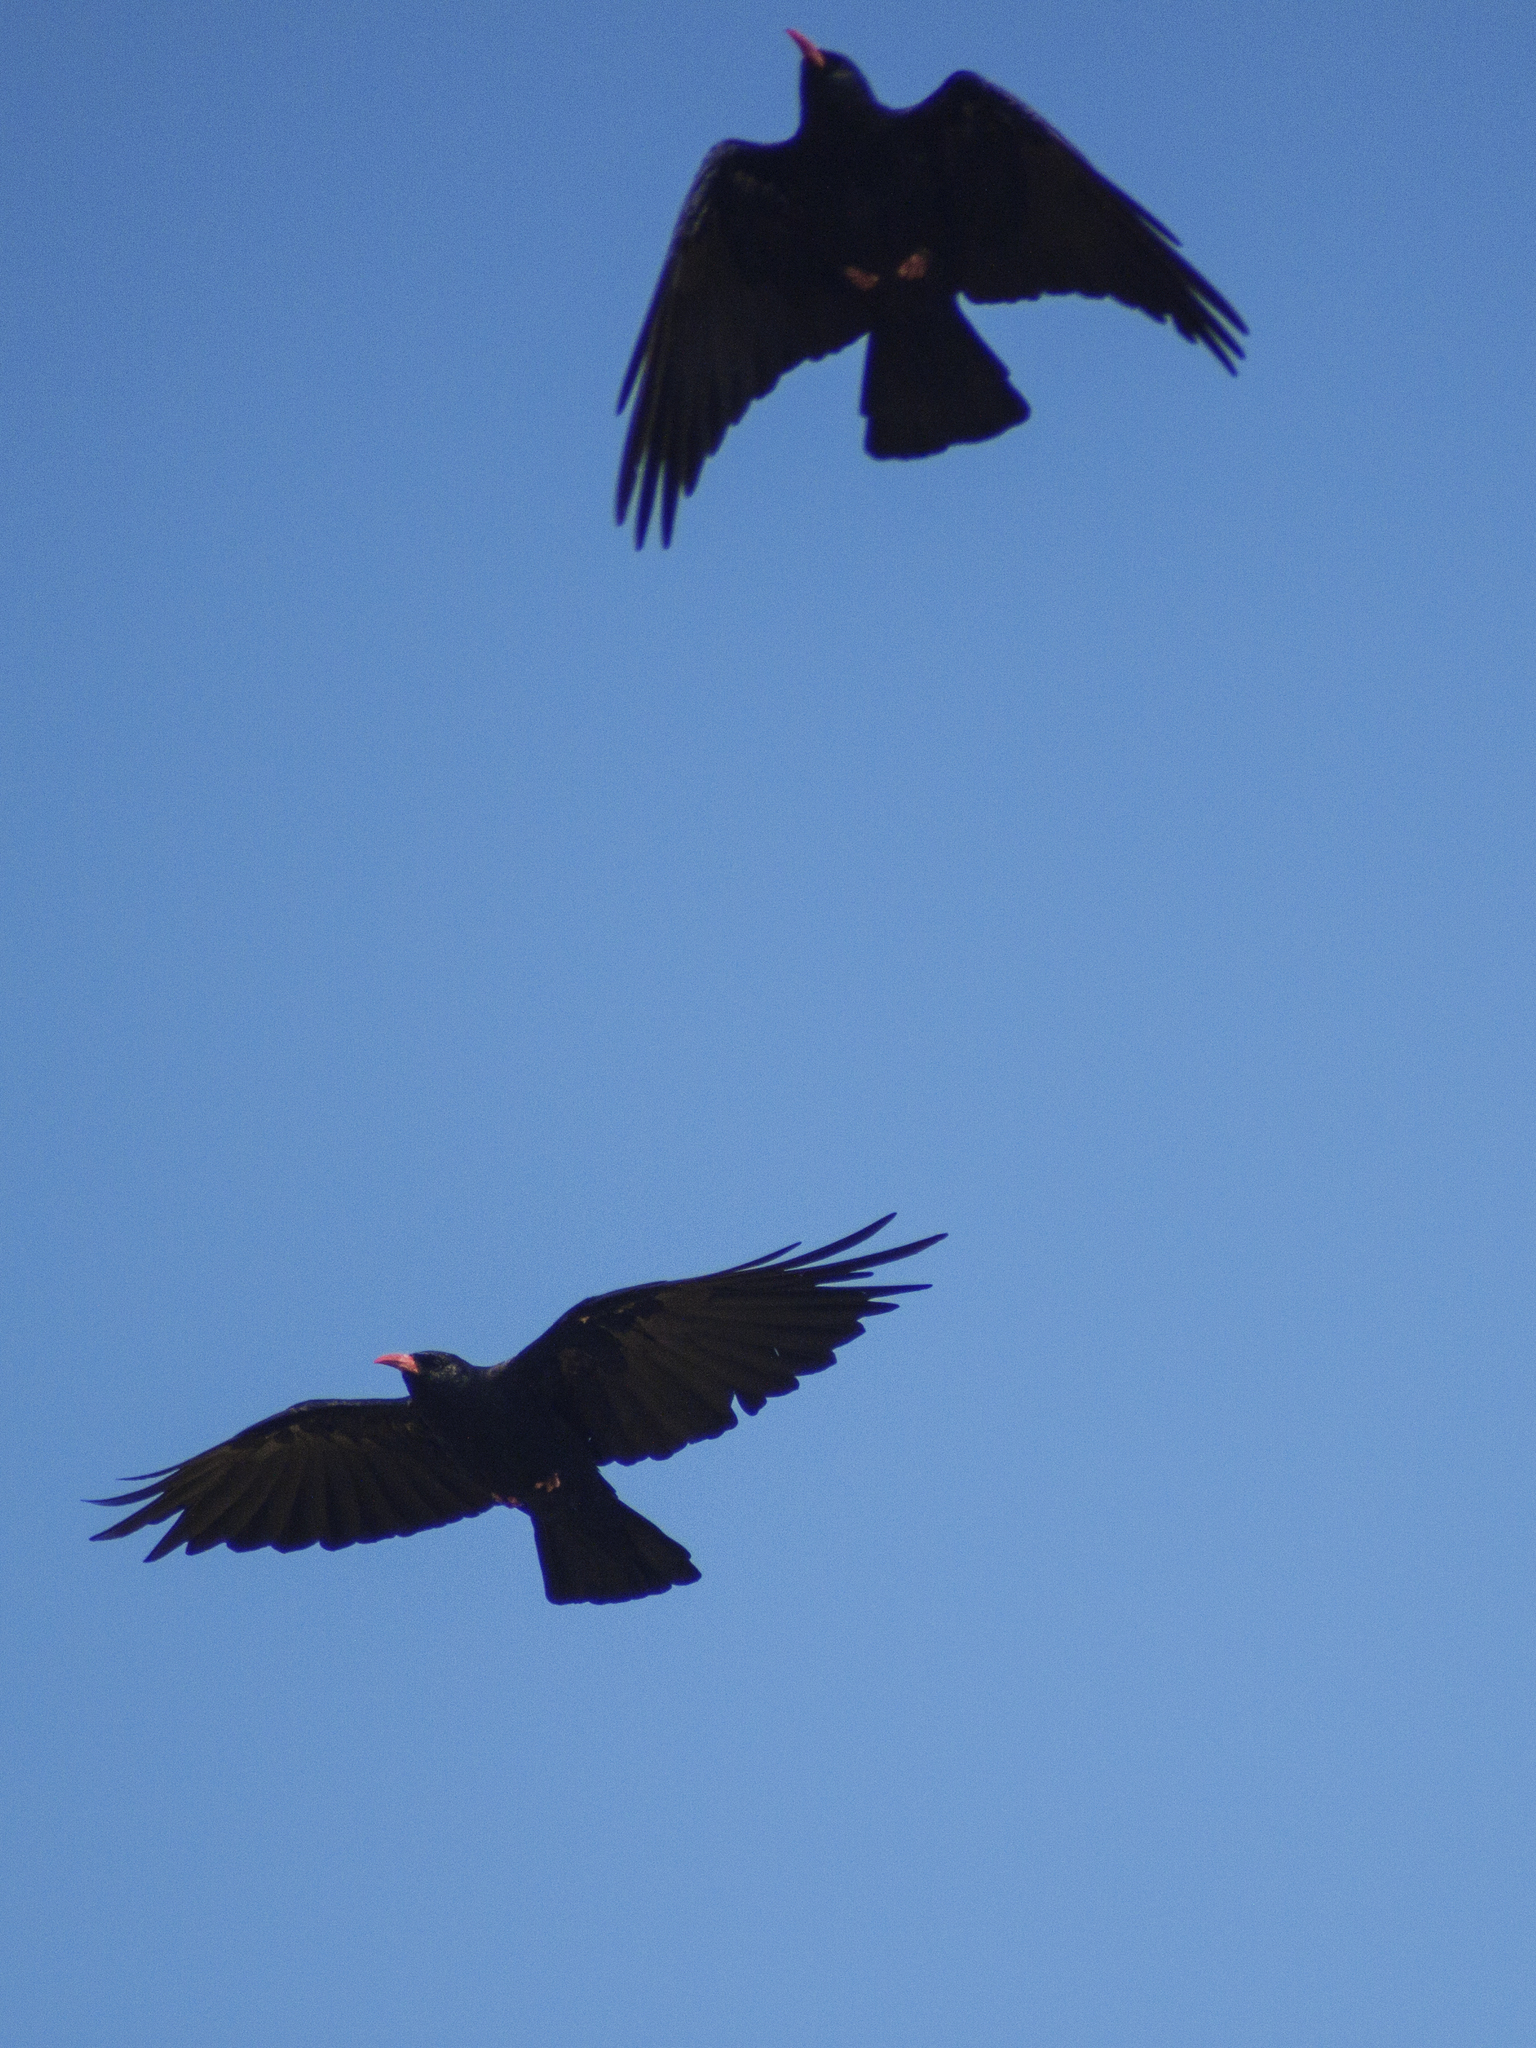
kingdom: Animalia
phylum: Chordata
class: Aves
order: Passeriformes
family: Corvidae
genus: Pyrrhocorax
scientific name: Pyrrhocorax pyrrhocorax
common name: Red-billed chough
